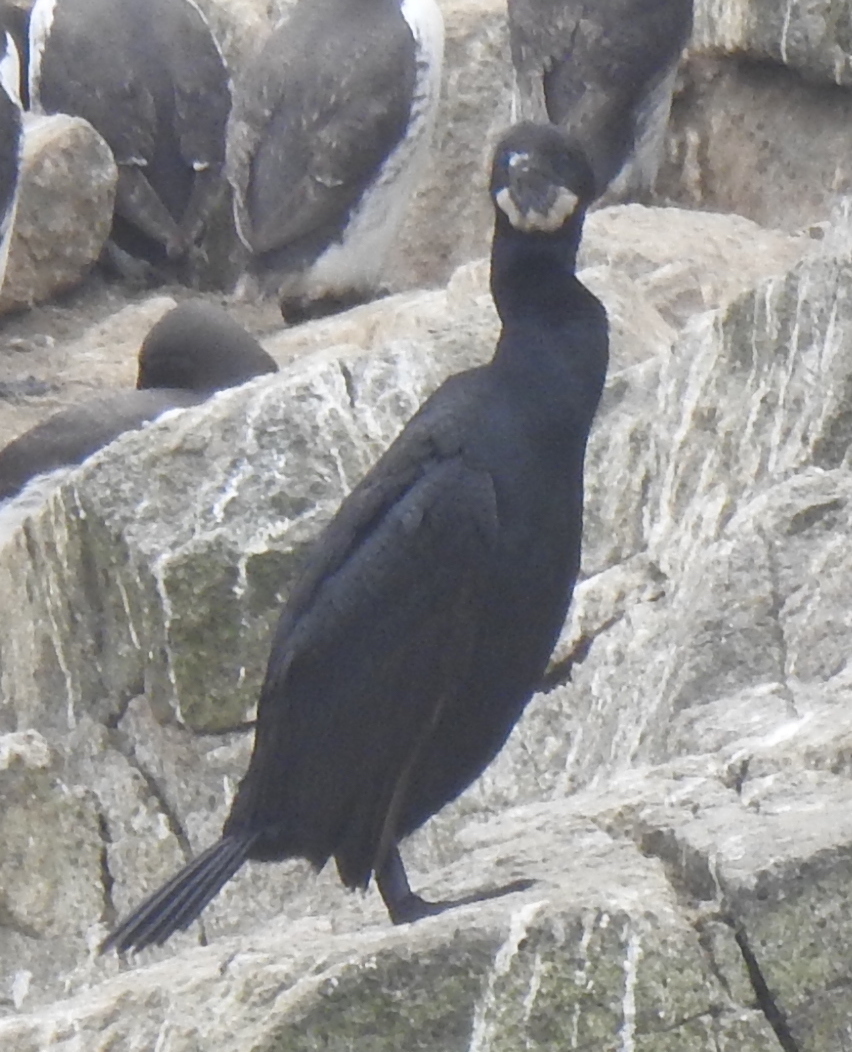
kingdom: Animalia
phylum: Chordata
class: Aves
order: Suliformes
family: Phalacrocoracidae
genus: Urile
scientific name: Urile penicillatus
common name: Brandt's cormorant
